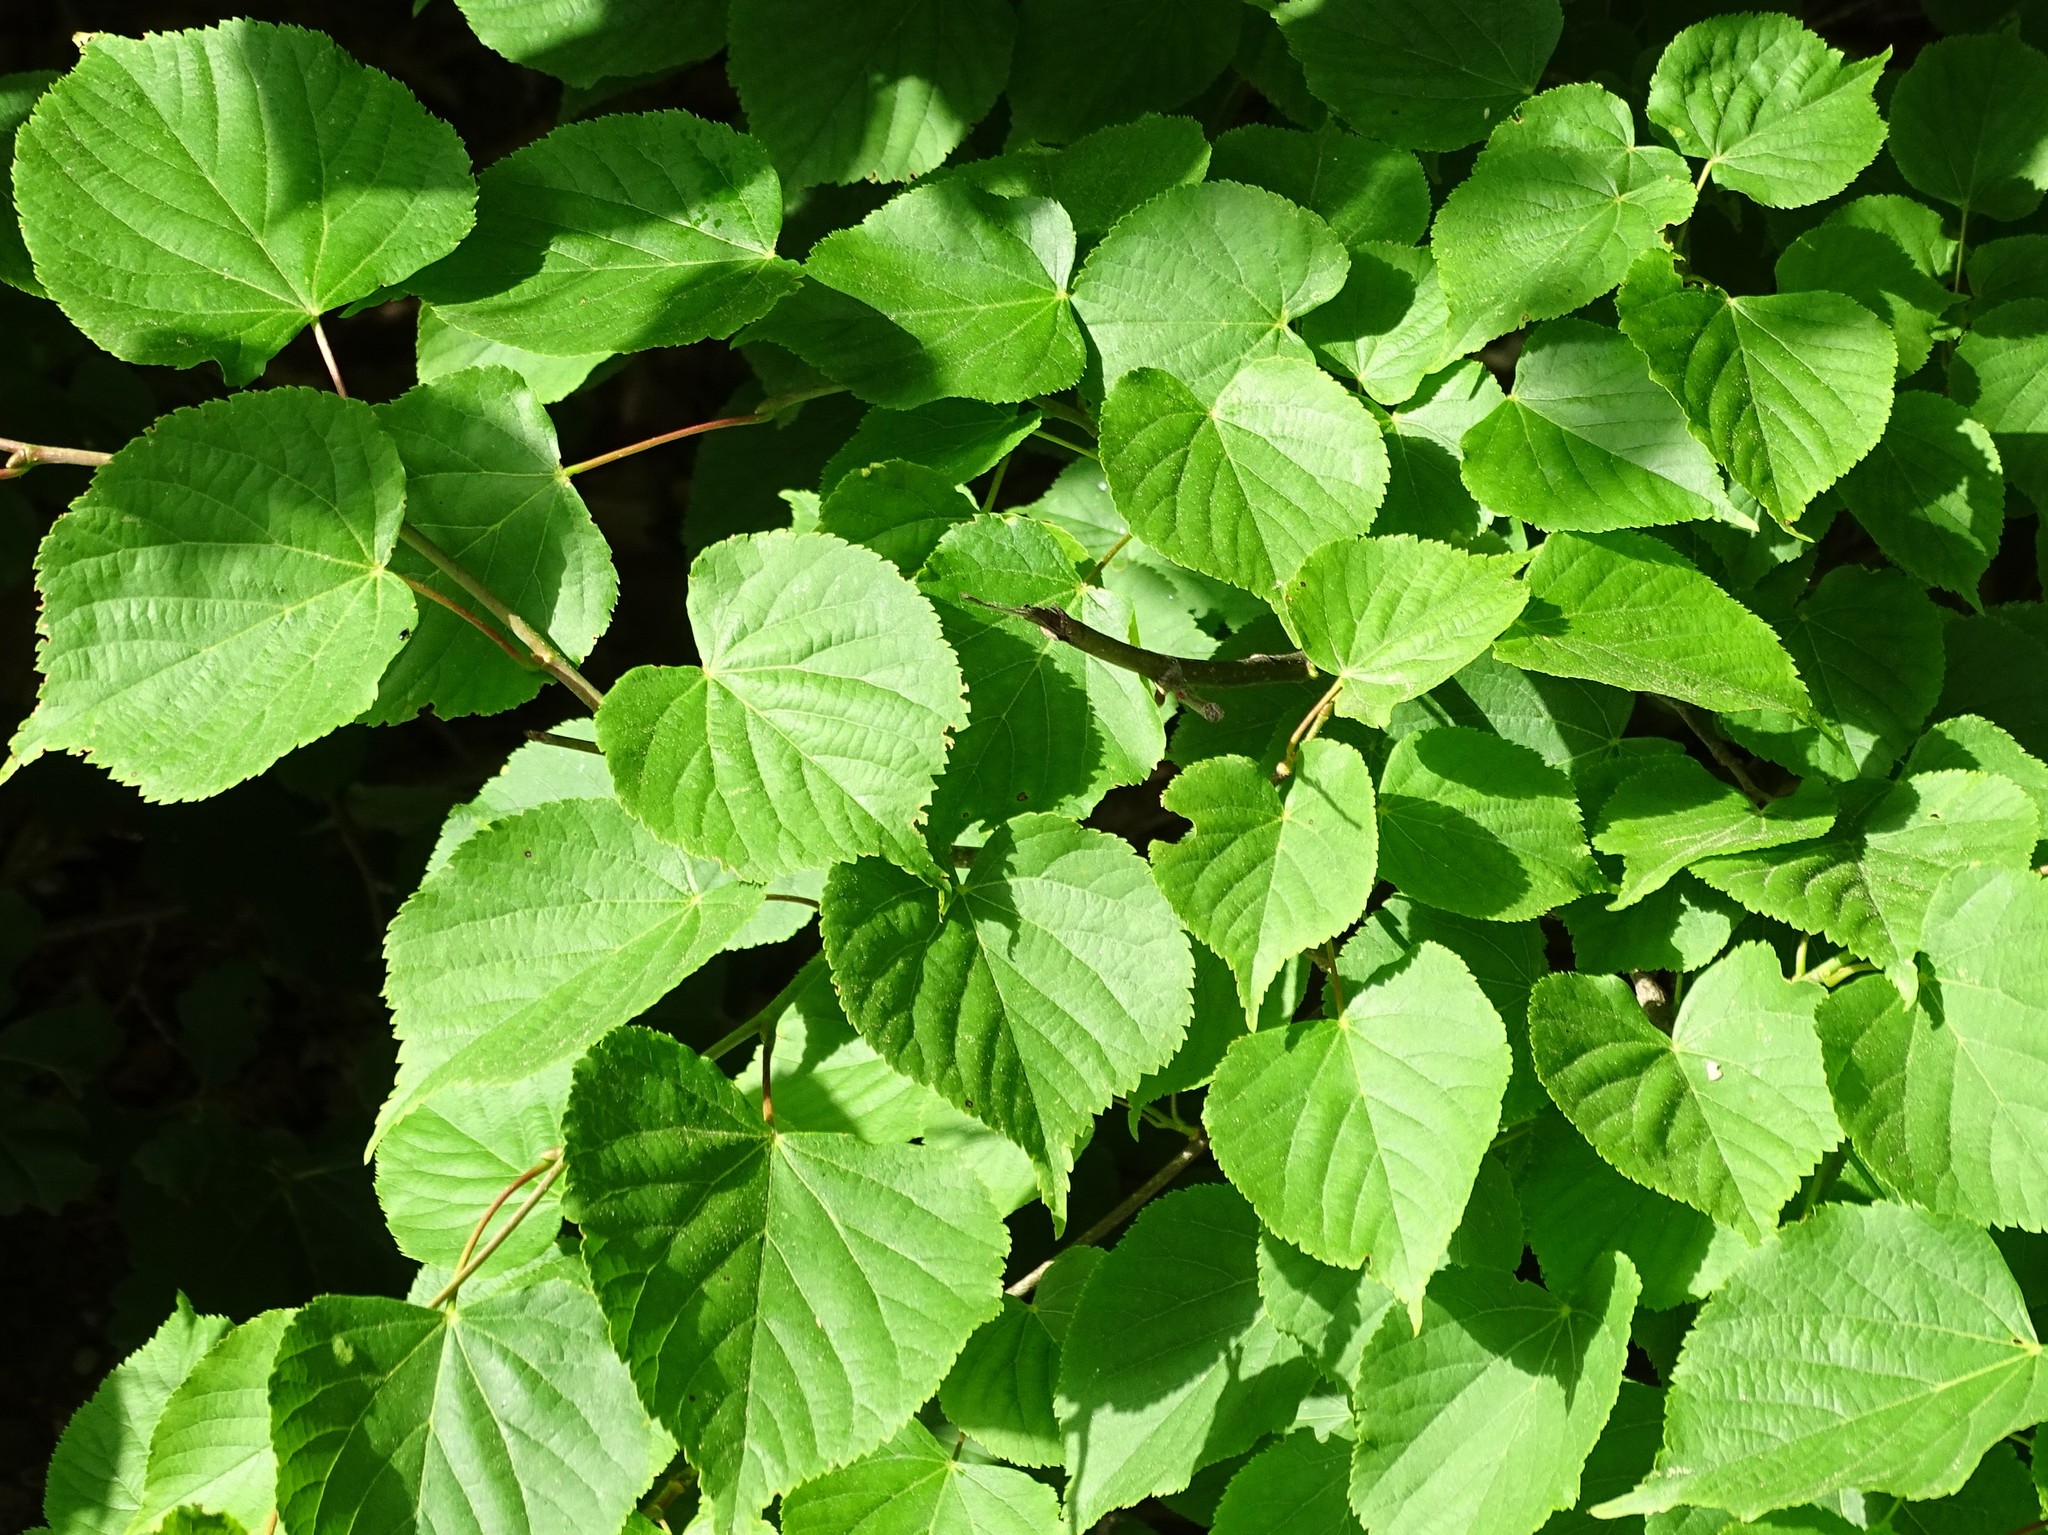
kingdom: Plantae
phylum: Tracheophyta
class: Magnoliopsida
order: Malvales
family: Malvaceae
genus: Tilia
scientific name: Tilia cordata
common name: Small-leaved lime
